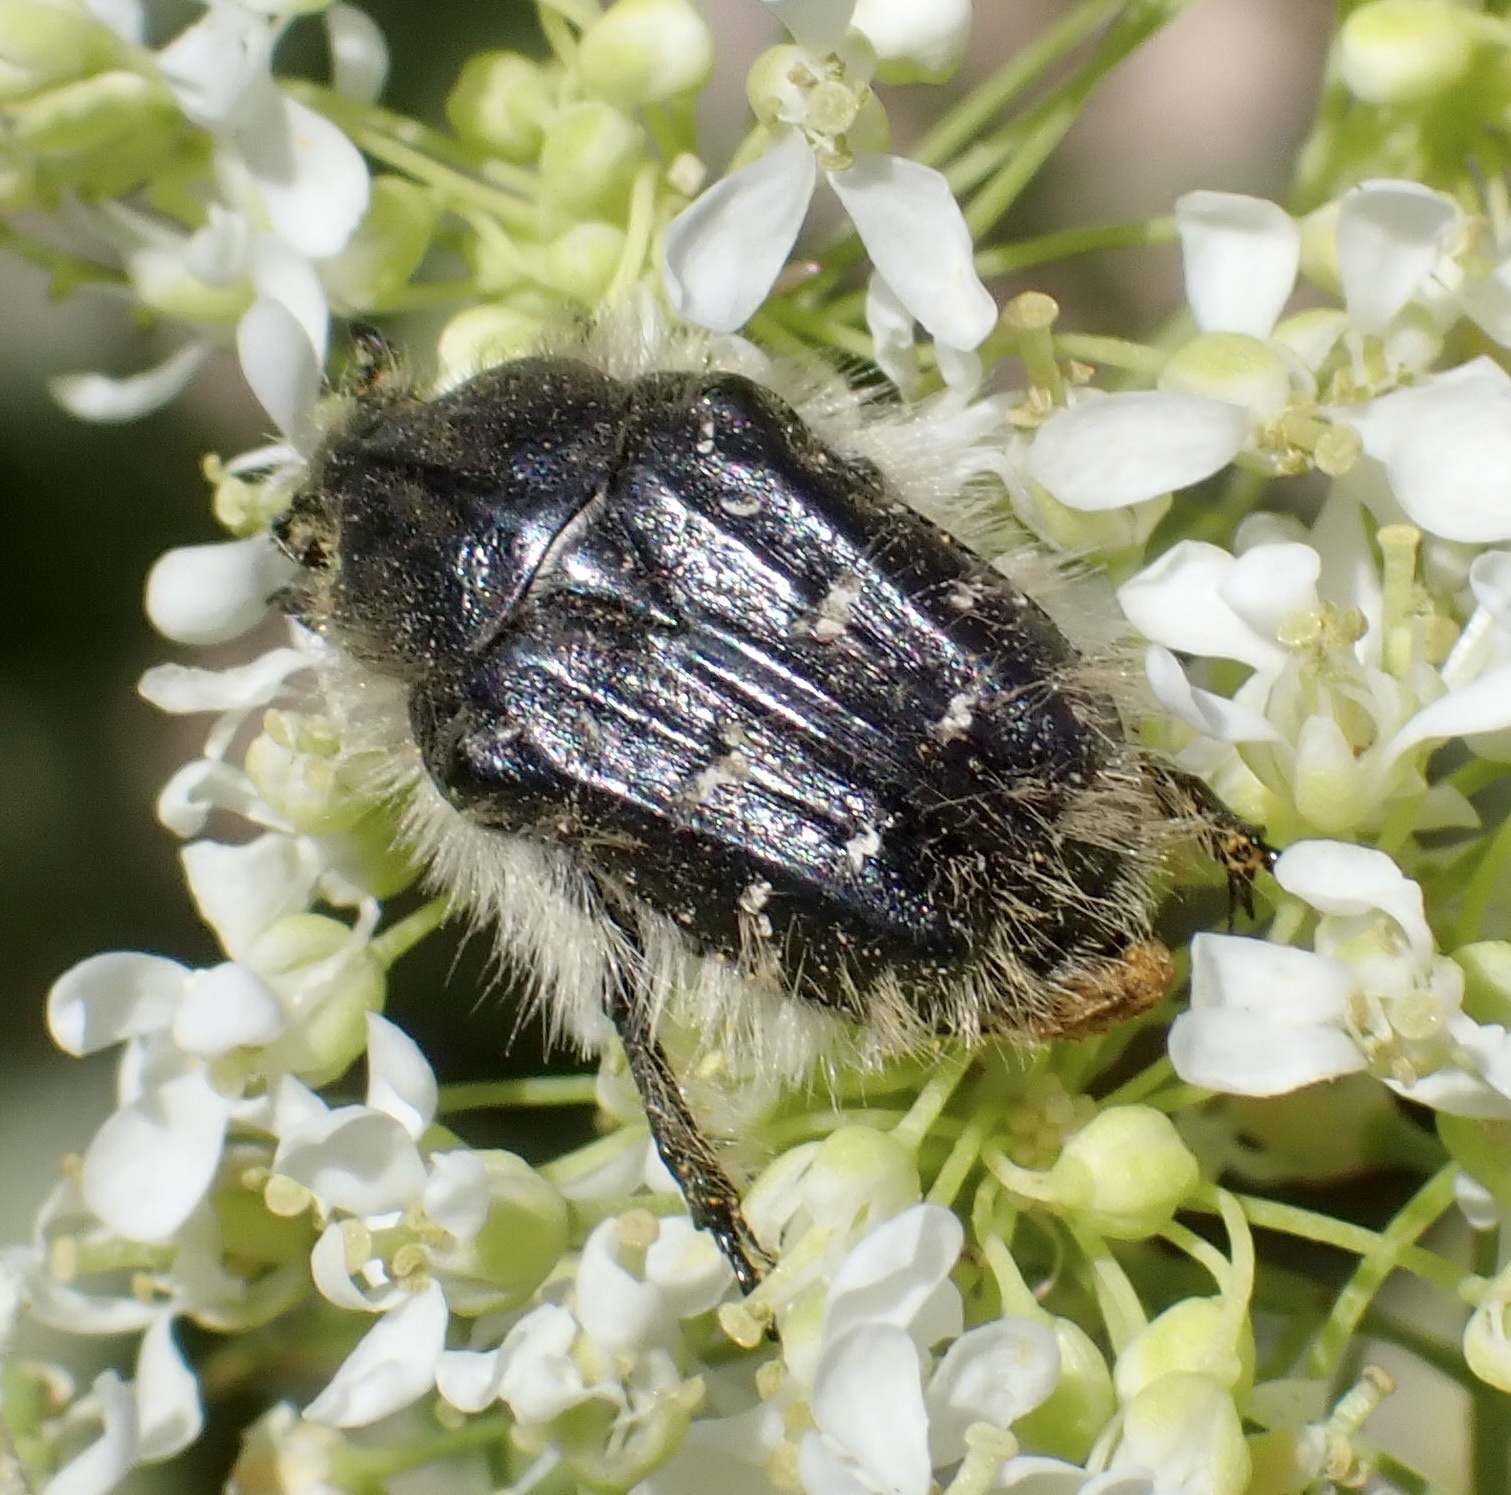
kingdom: Animalia
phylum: Arthropoda
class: Insecta
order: Coleoptera
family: Scarabaeidae
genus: Tropinota
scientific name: Tropinota squalida
